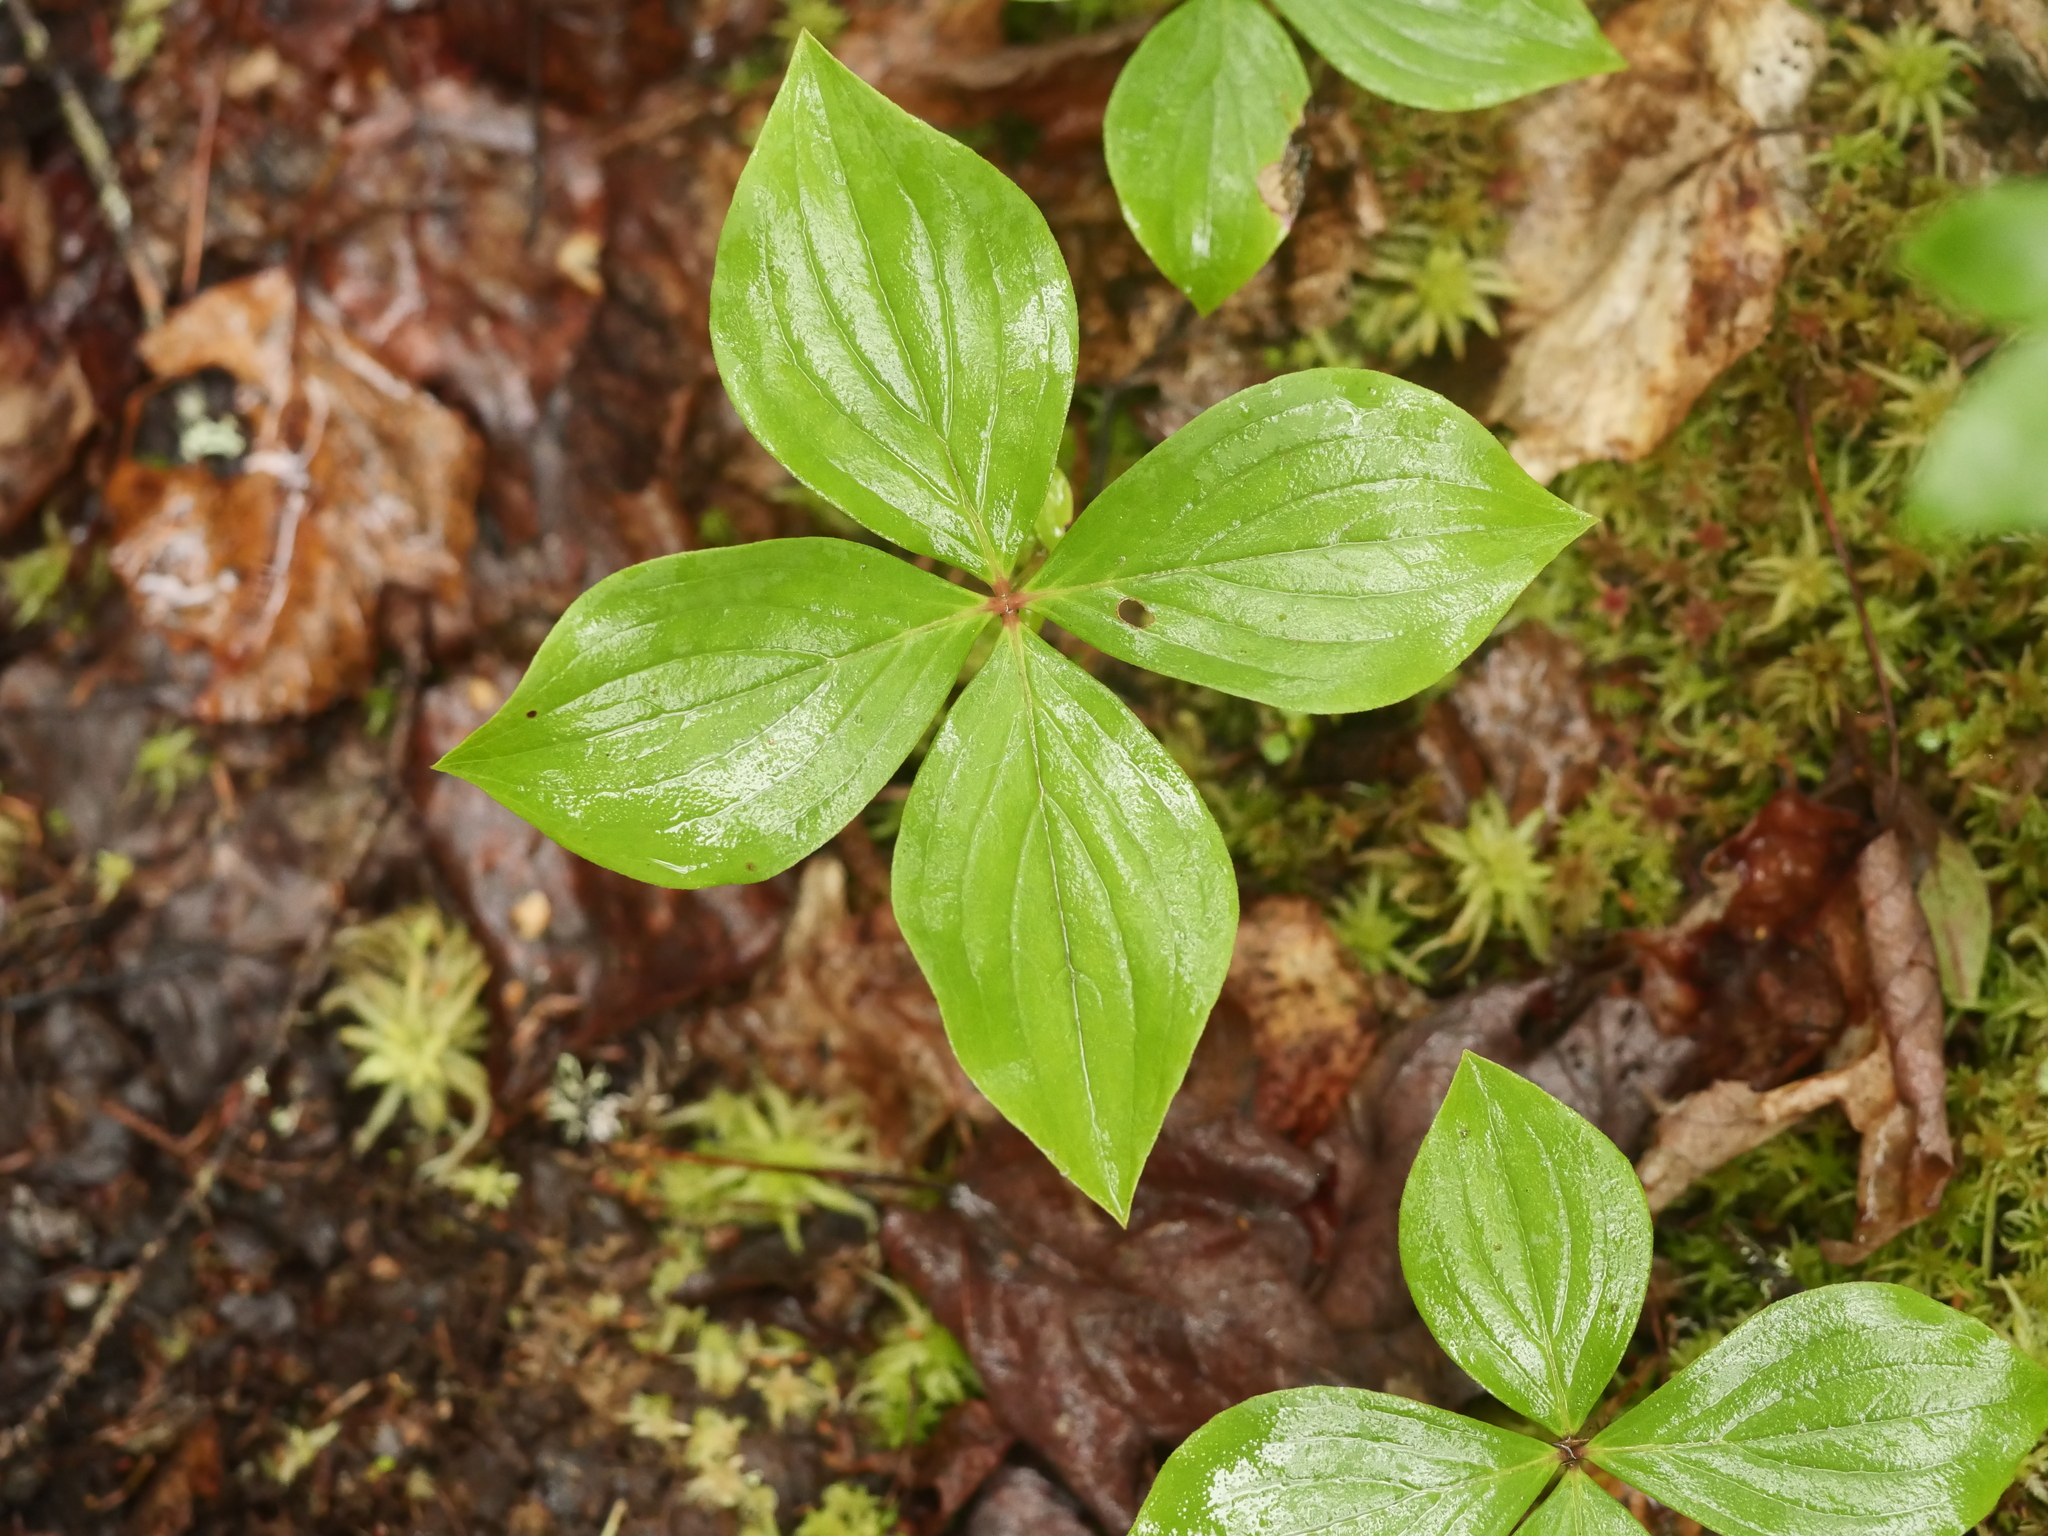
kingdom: Plantae
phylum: Tracheophyta
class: Magnoliopsida
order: Cornales
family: Cornaceae
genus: Cornus
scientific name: Cornus canadensis
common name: Creeping dogwood
